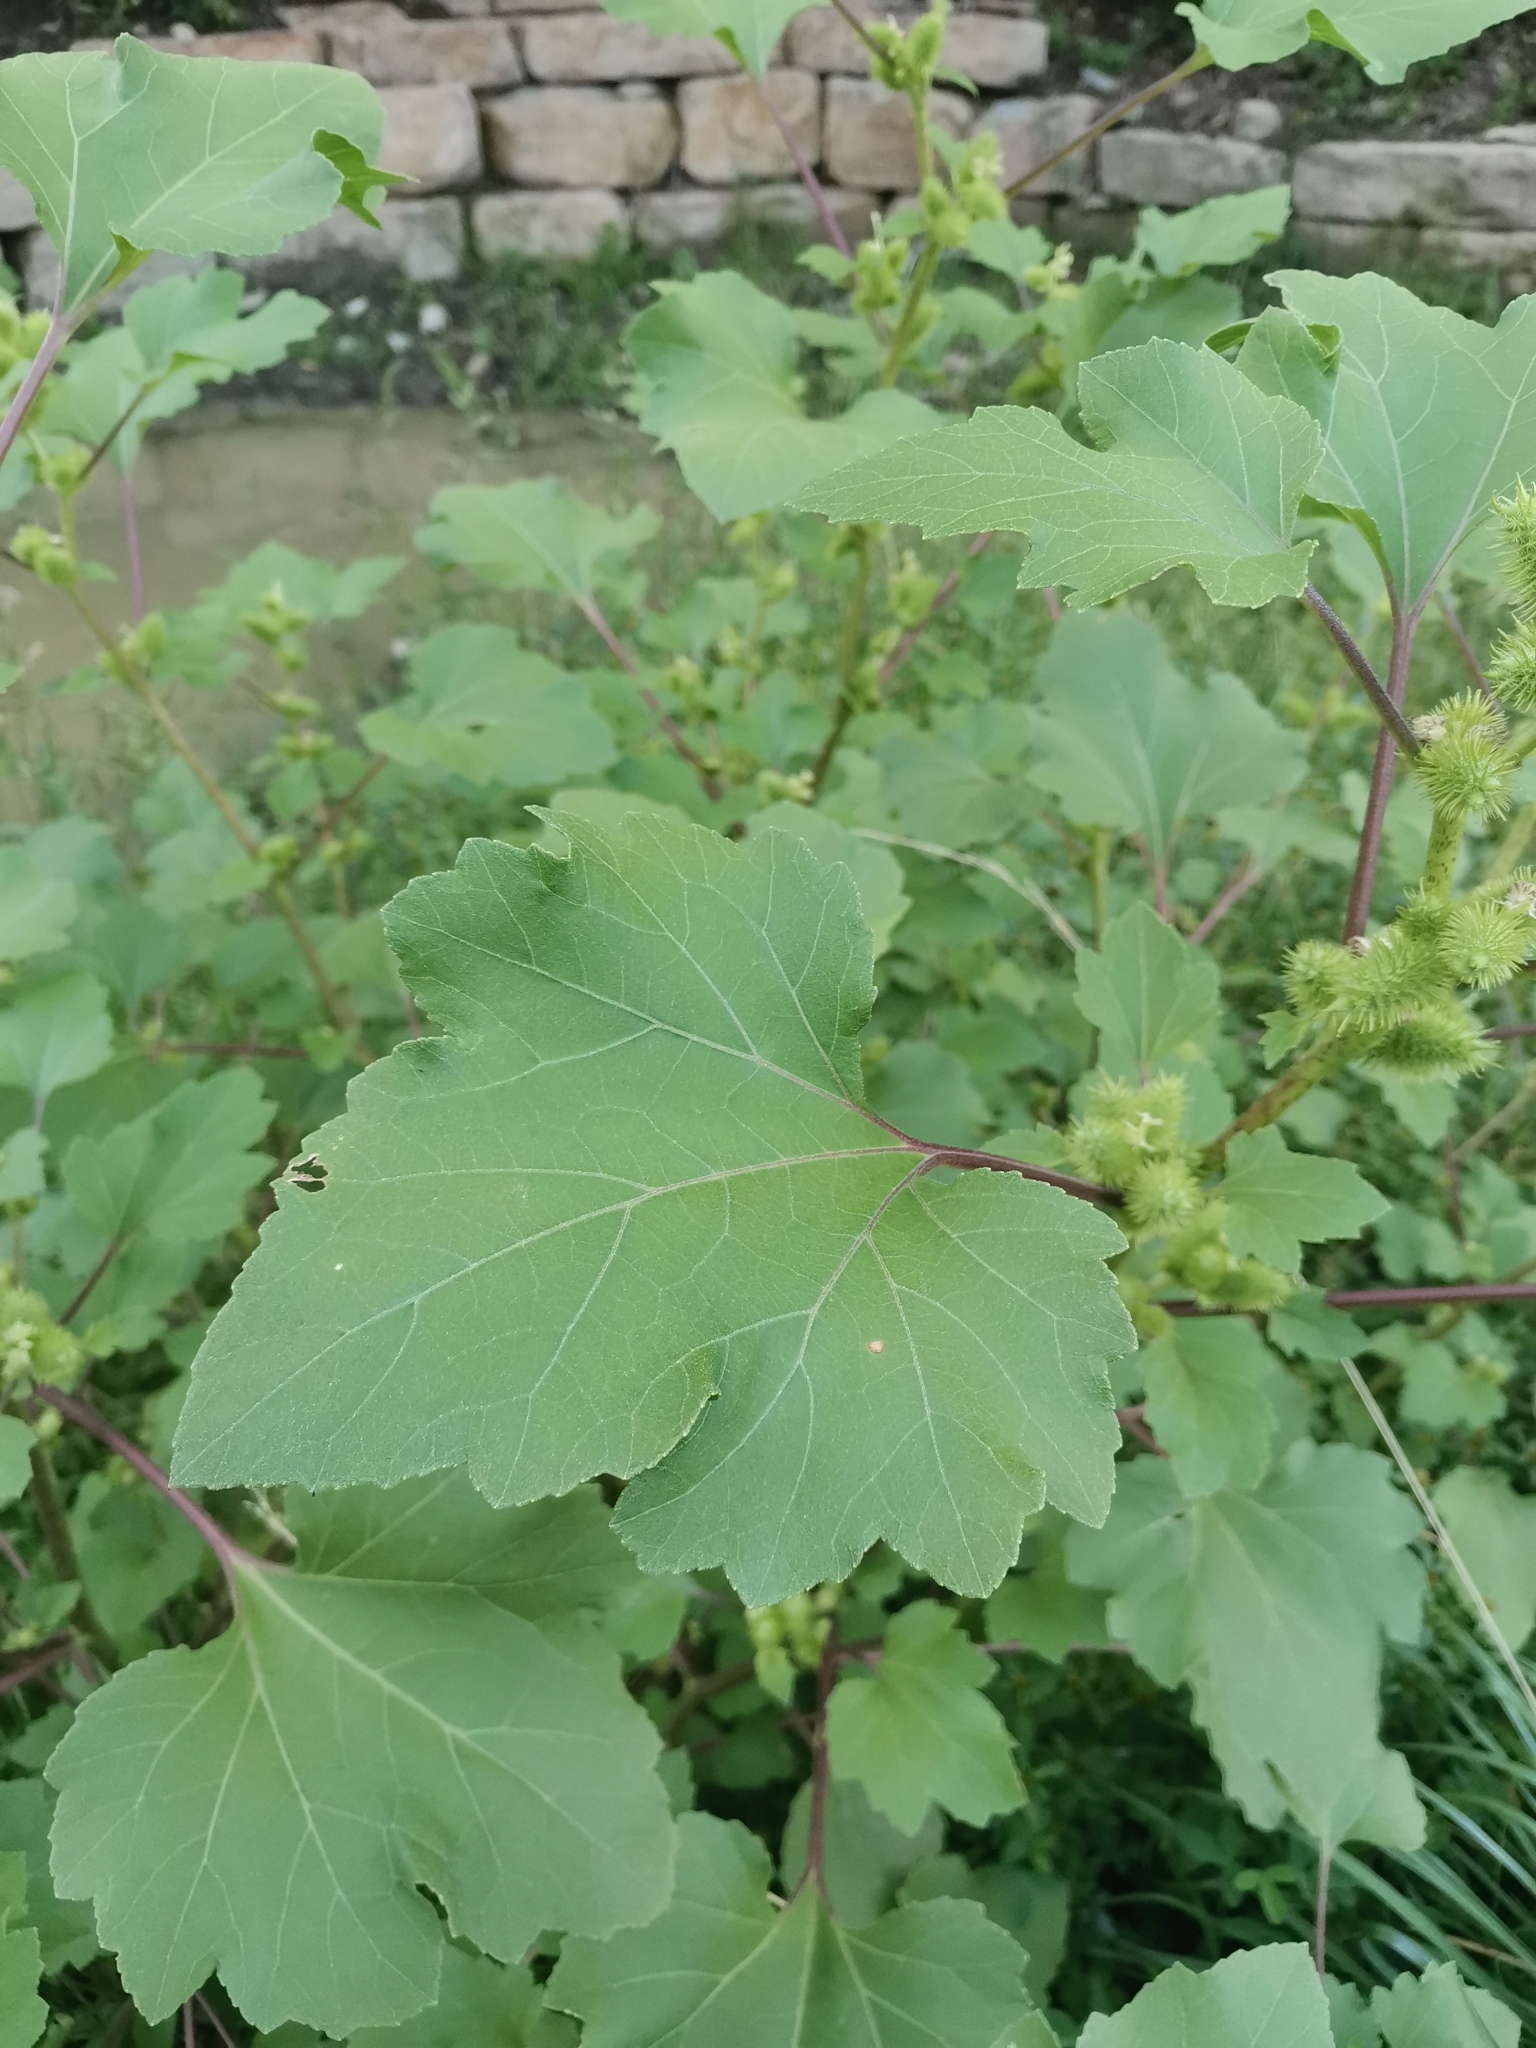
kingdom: Plantae
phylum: Tracheophyta
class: Magnoliopsida
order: Asterales
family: Asteraceae
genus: Xanthium
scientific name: Xanthium strumarium
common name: Rough cocklebur
